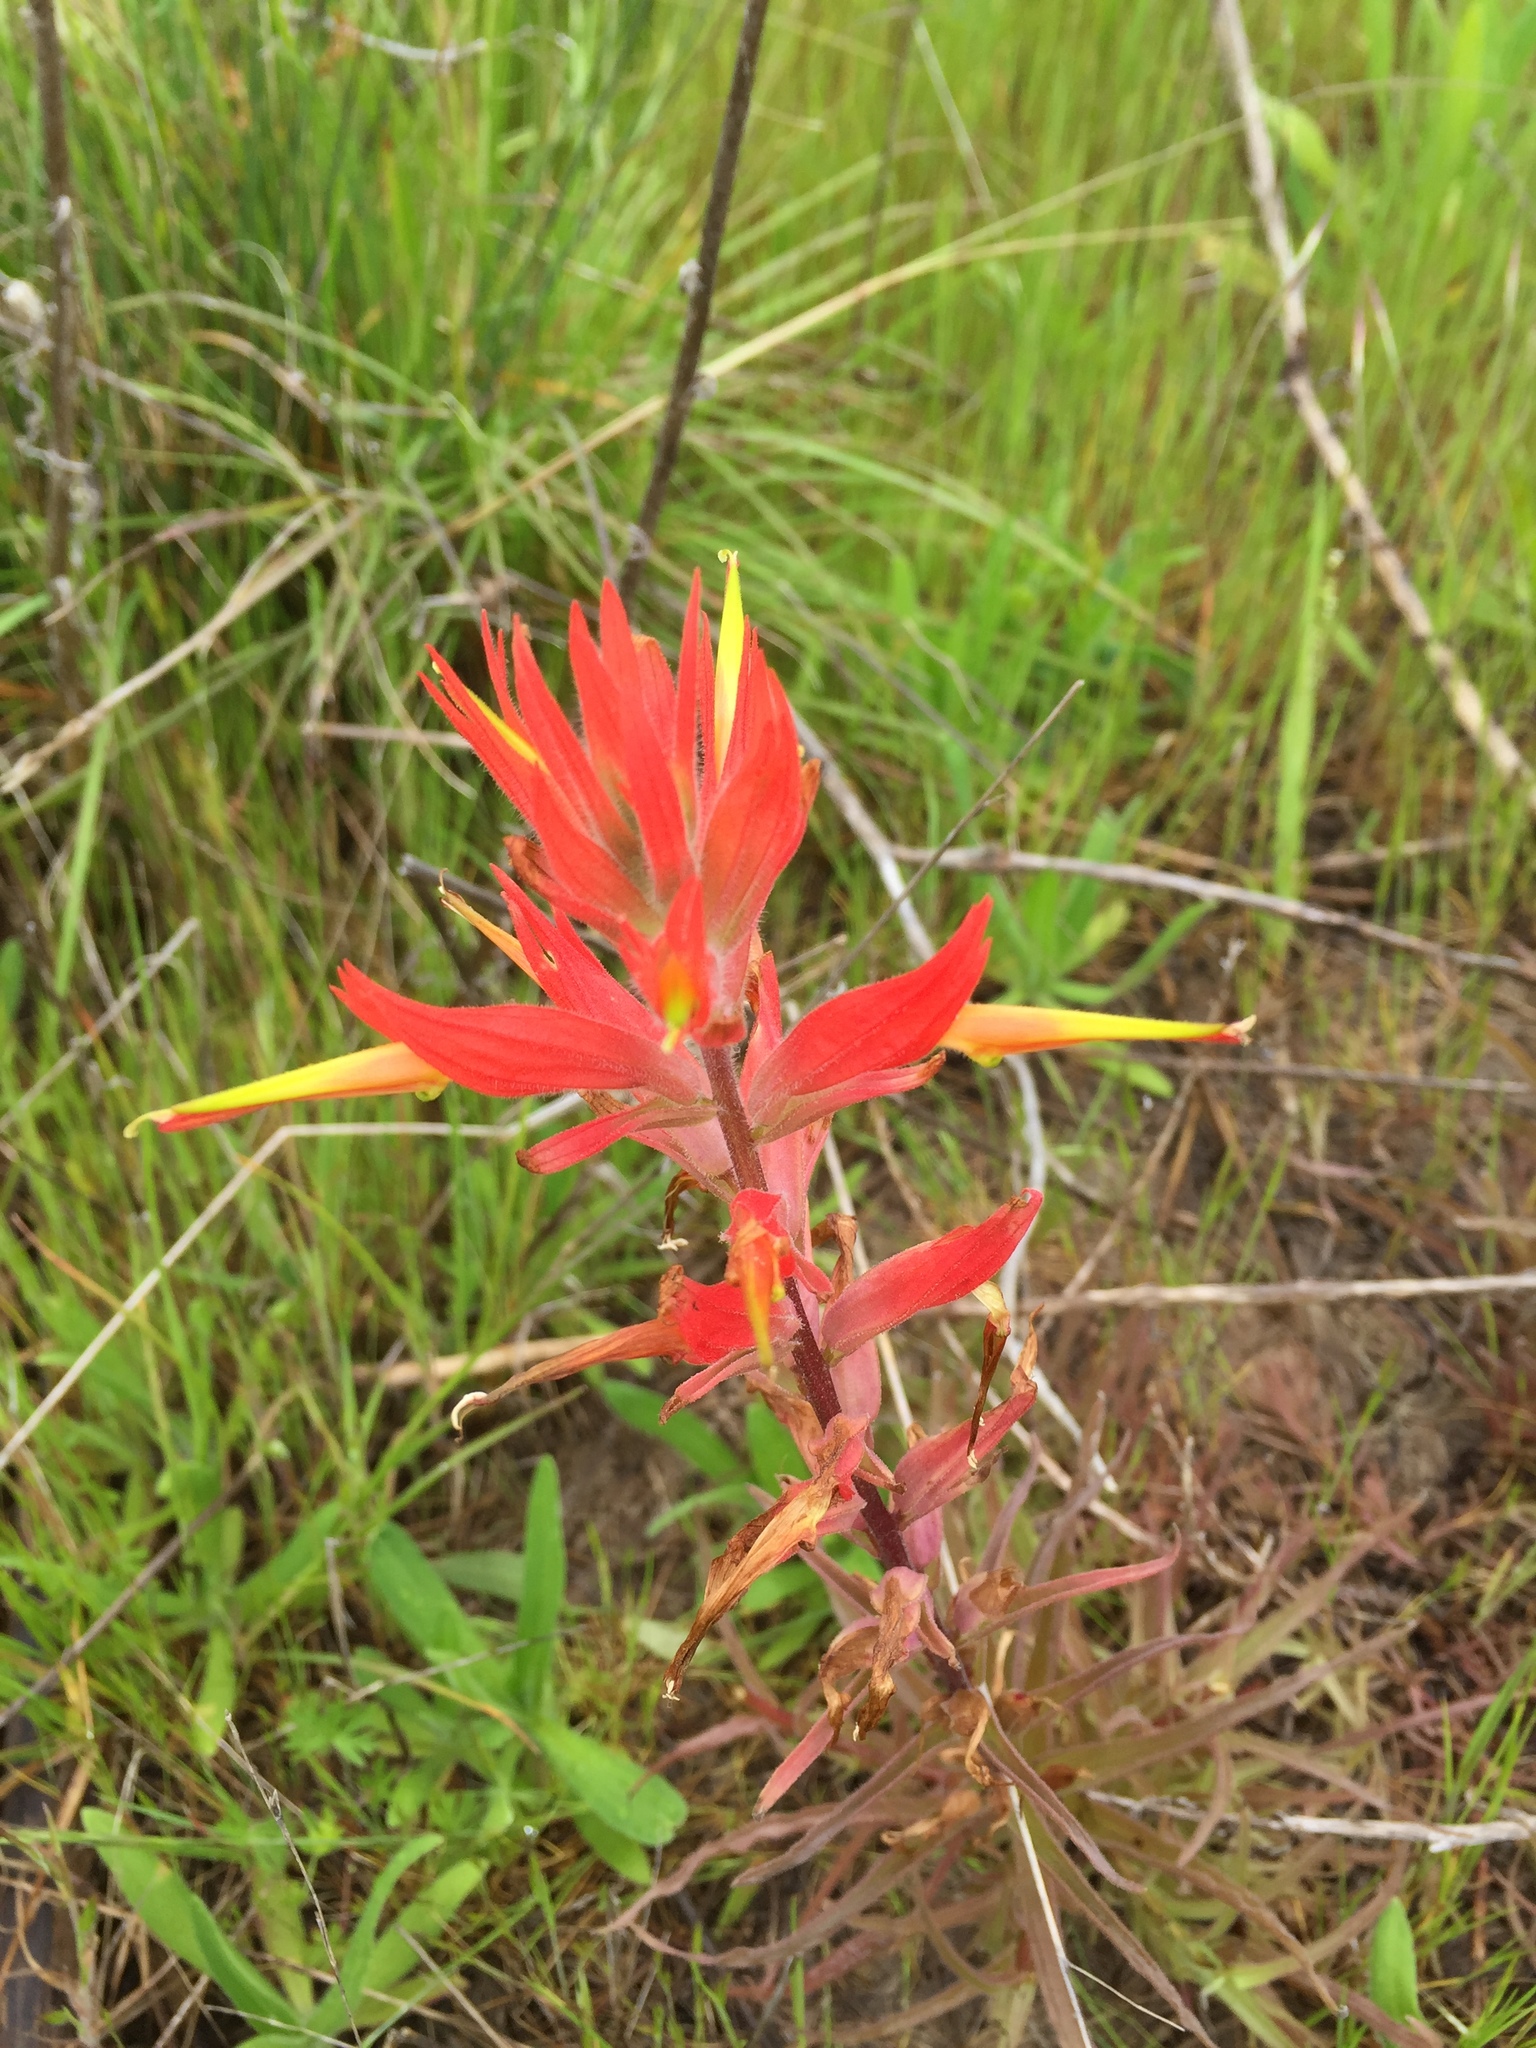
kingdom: Plantae
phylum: Tracheophyta
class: Magnoliopsida
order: Lamiales
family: Orobanchaceae
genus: Castilleja
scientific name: Castilleja subinclusa
